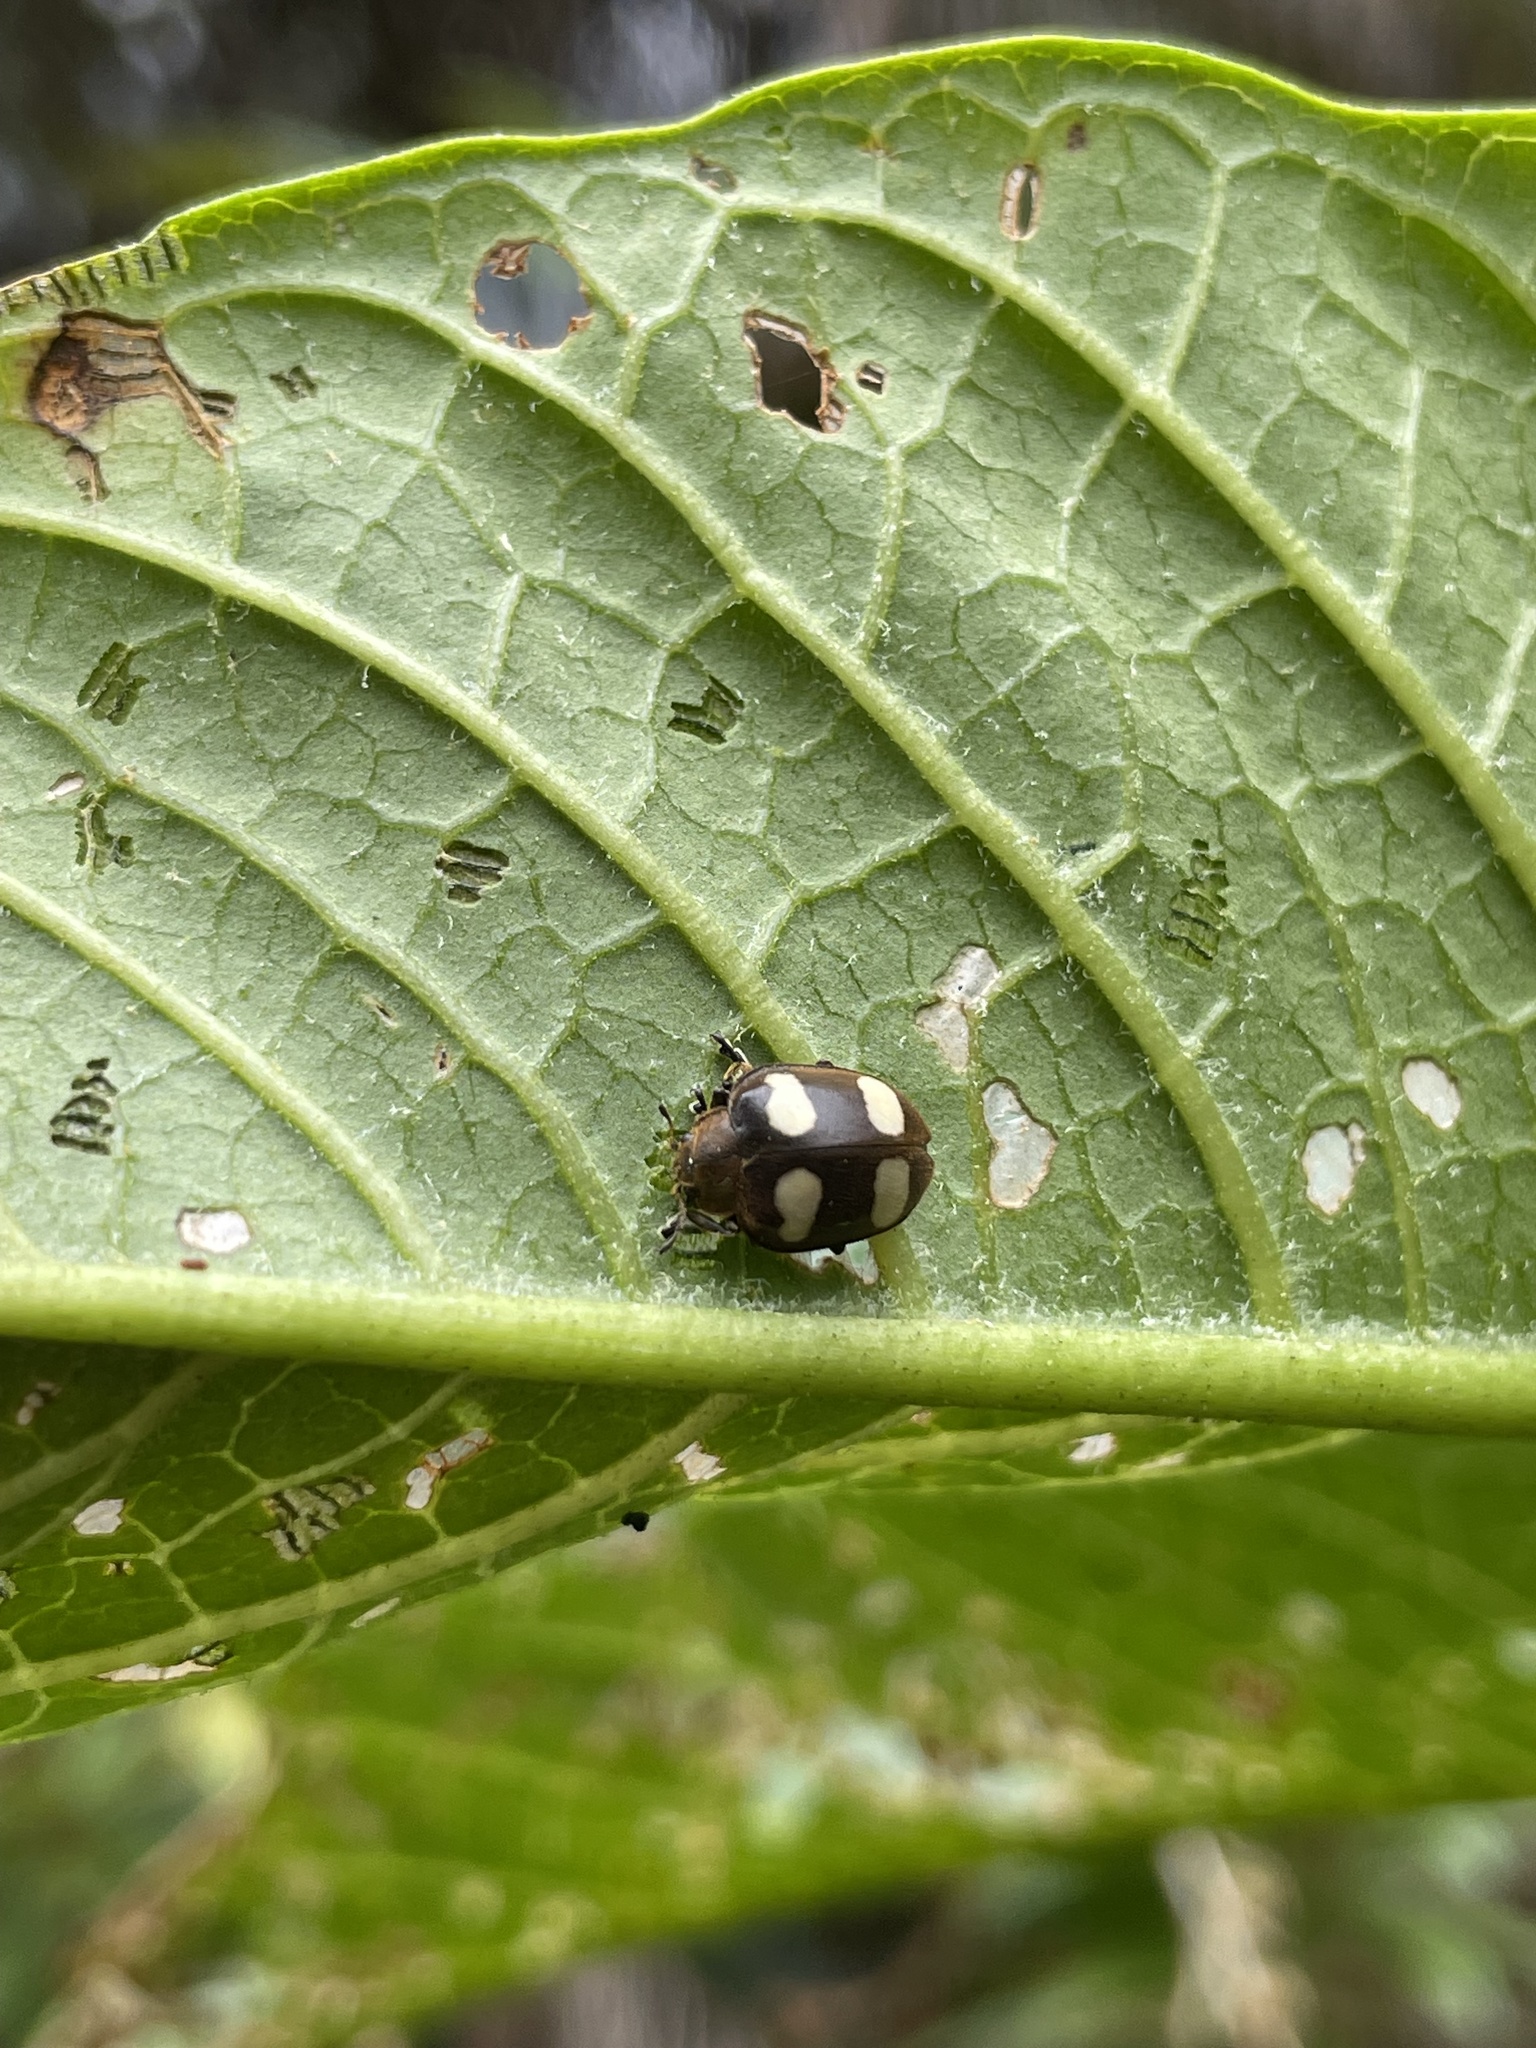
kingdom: Animalia
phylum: Arthropoda
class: Insecta
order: Coleoptera
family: Coccinellidae
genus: Epilachna
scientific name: Epilachna
